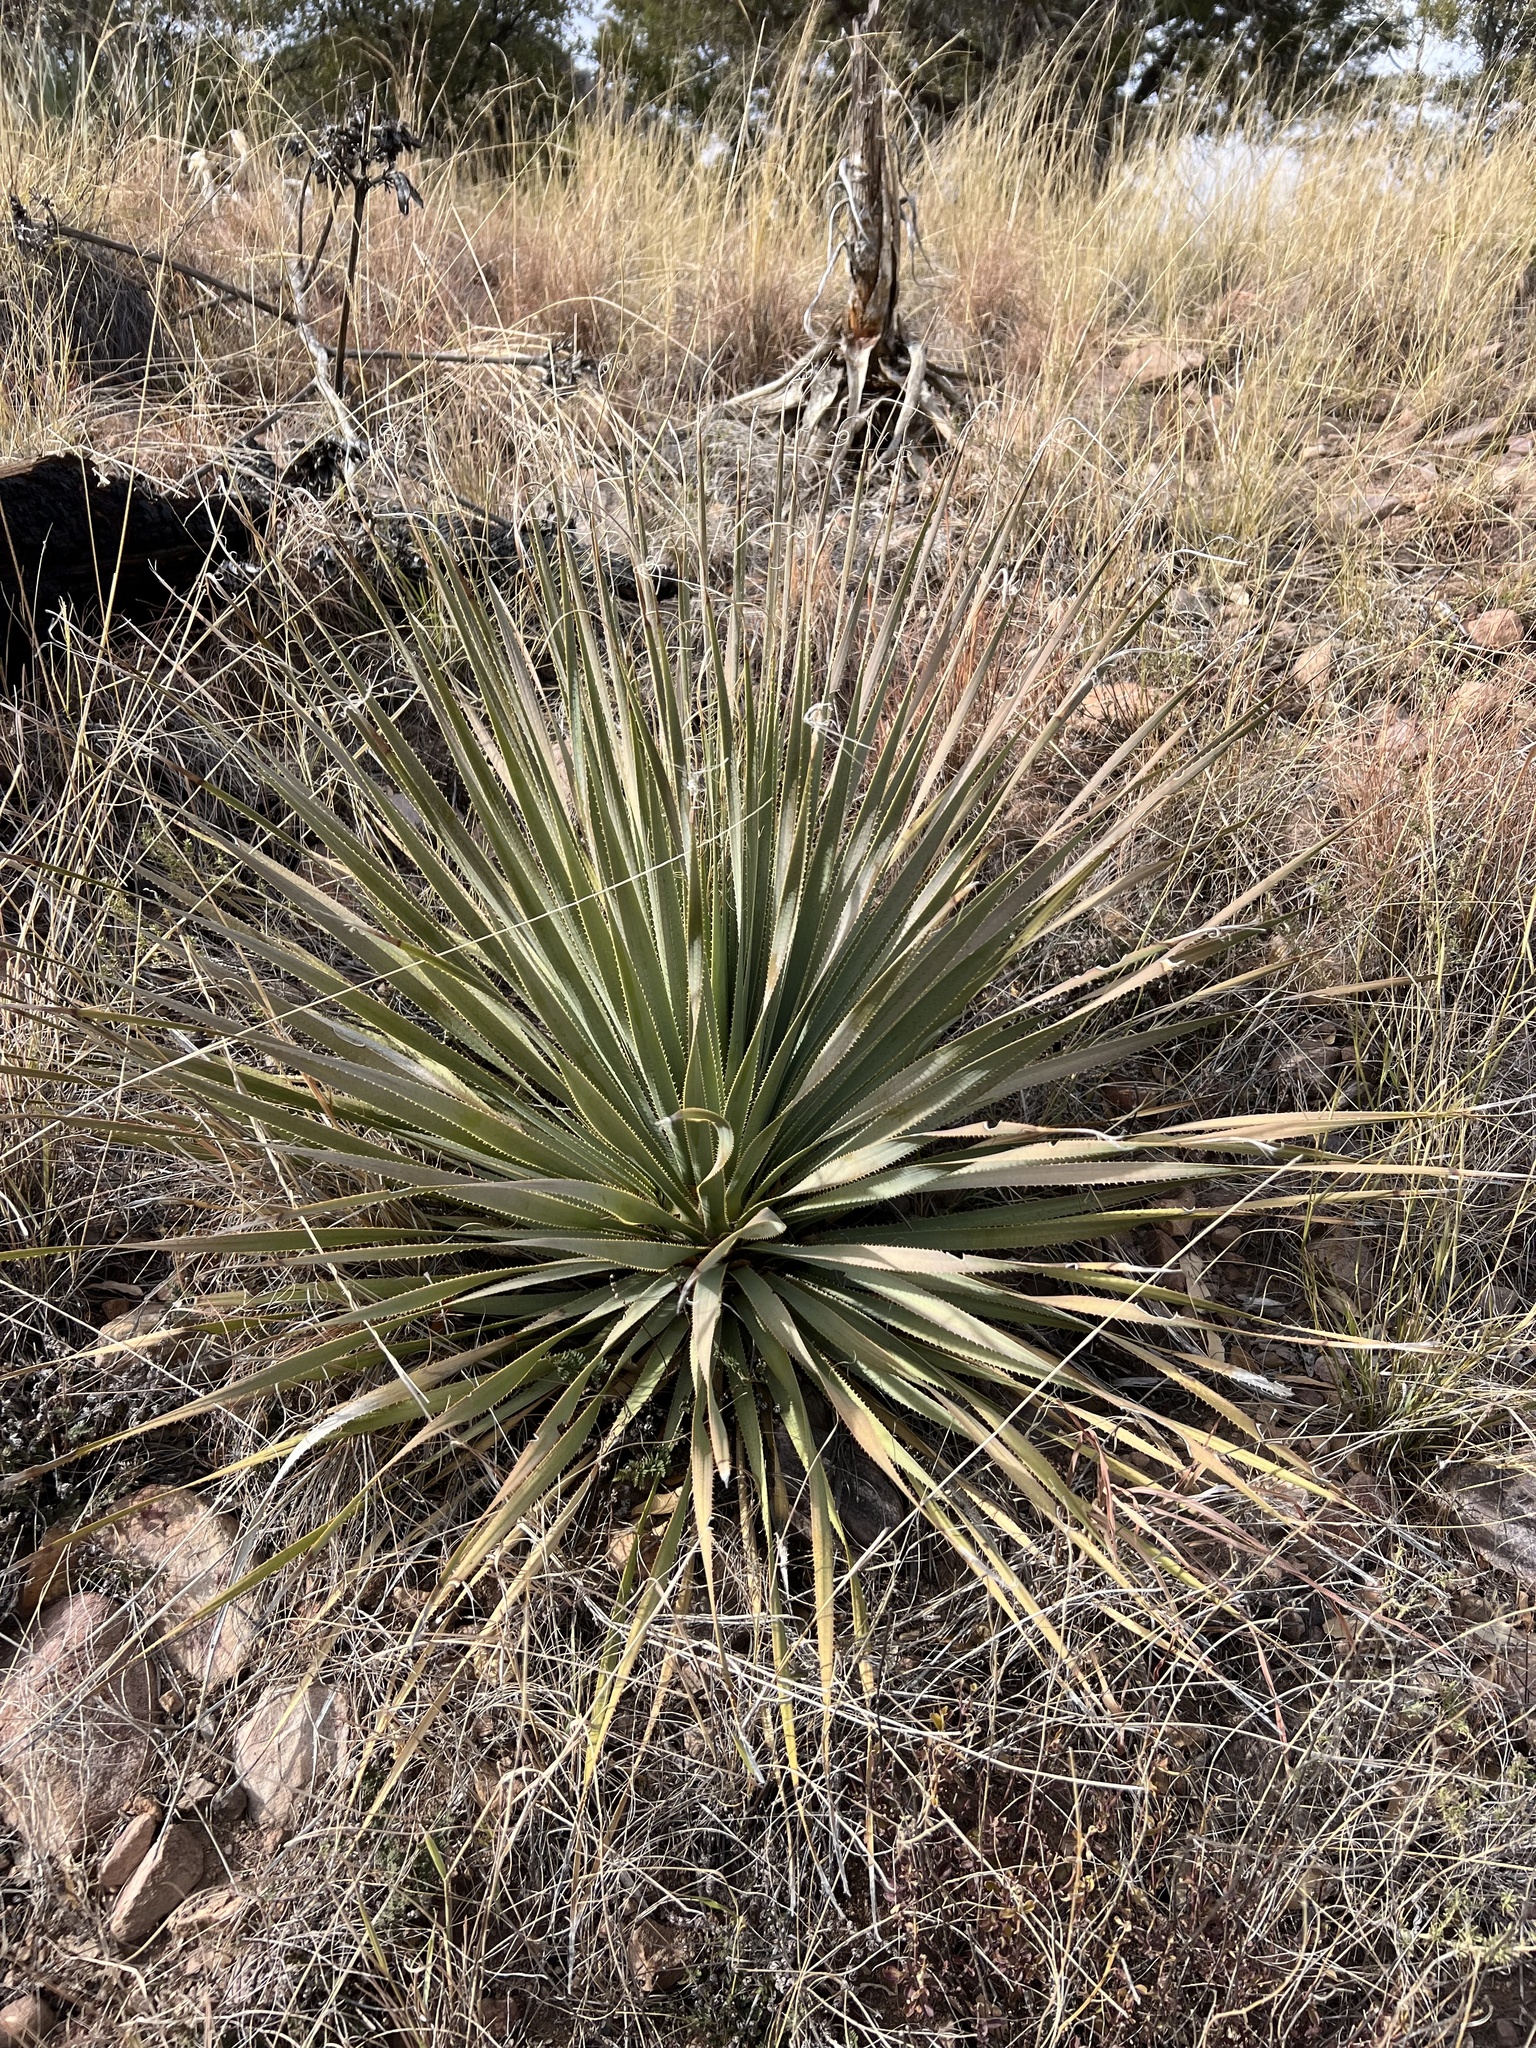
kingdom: Plantae
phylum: Tracheophyta
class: Liliopsida
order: Asparagales
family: Asparagaceae
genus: Dasylirion
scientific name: Dasylirion wheeleri
